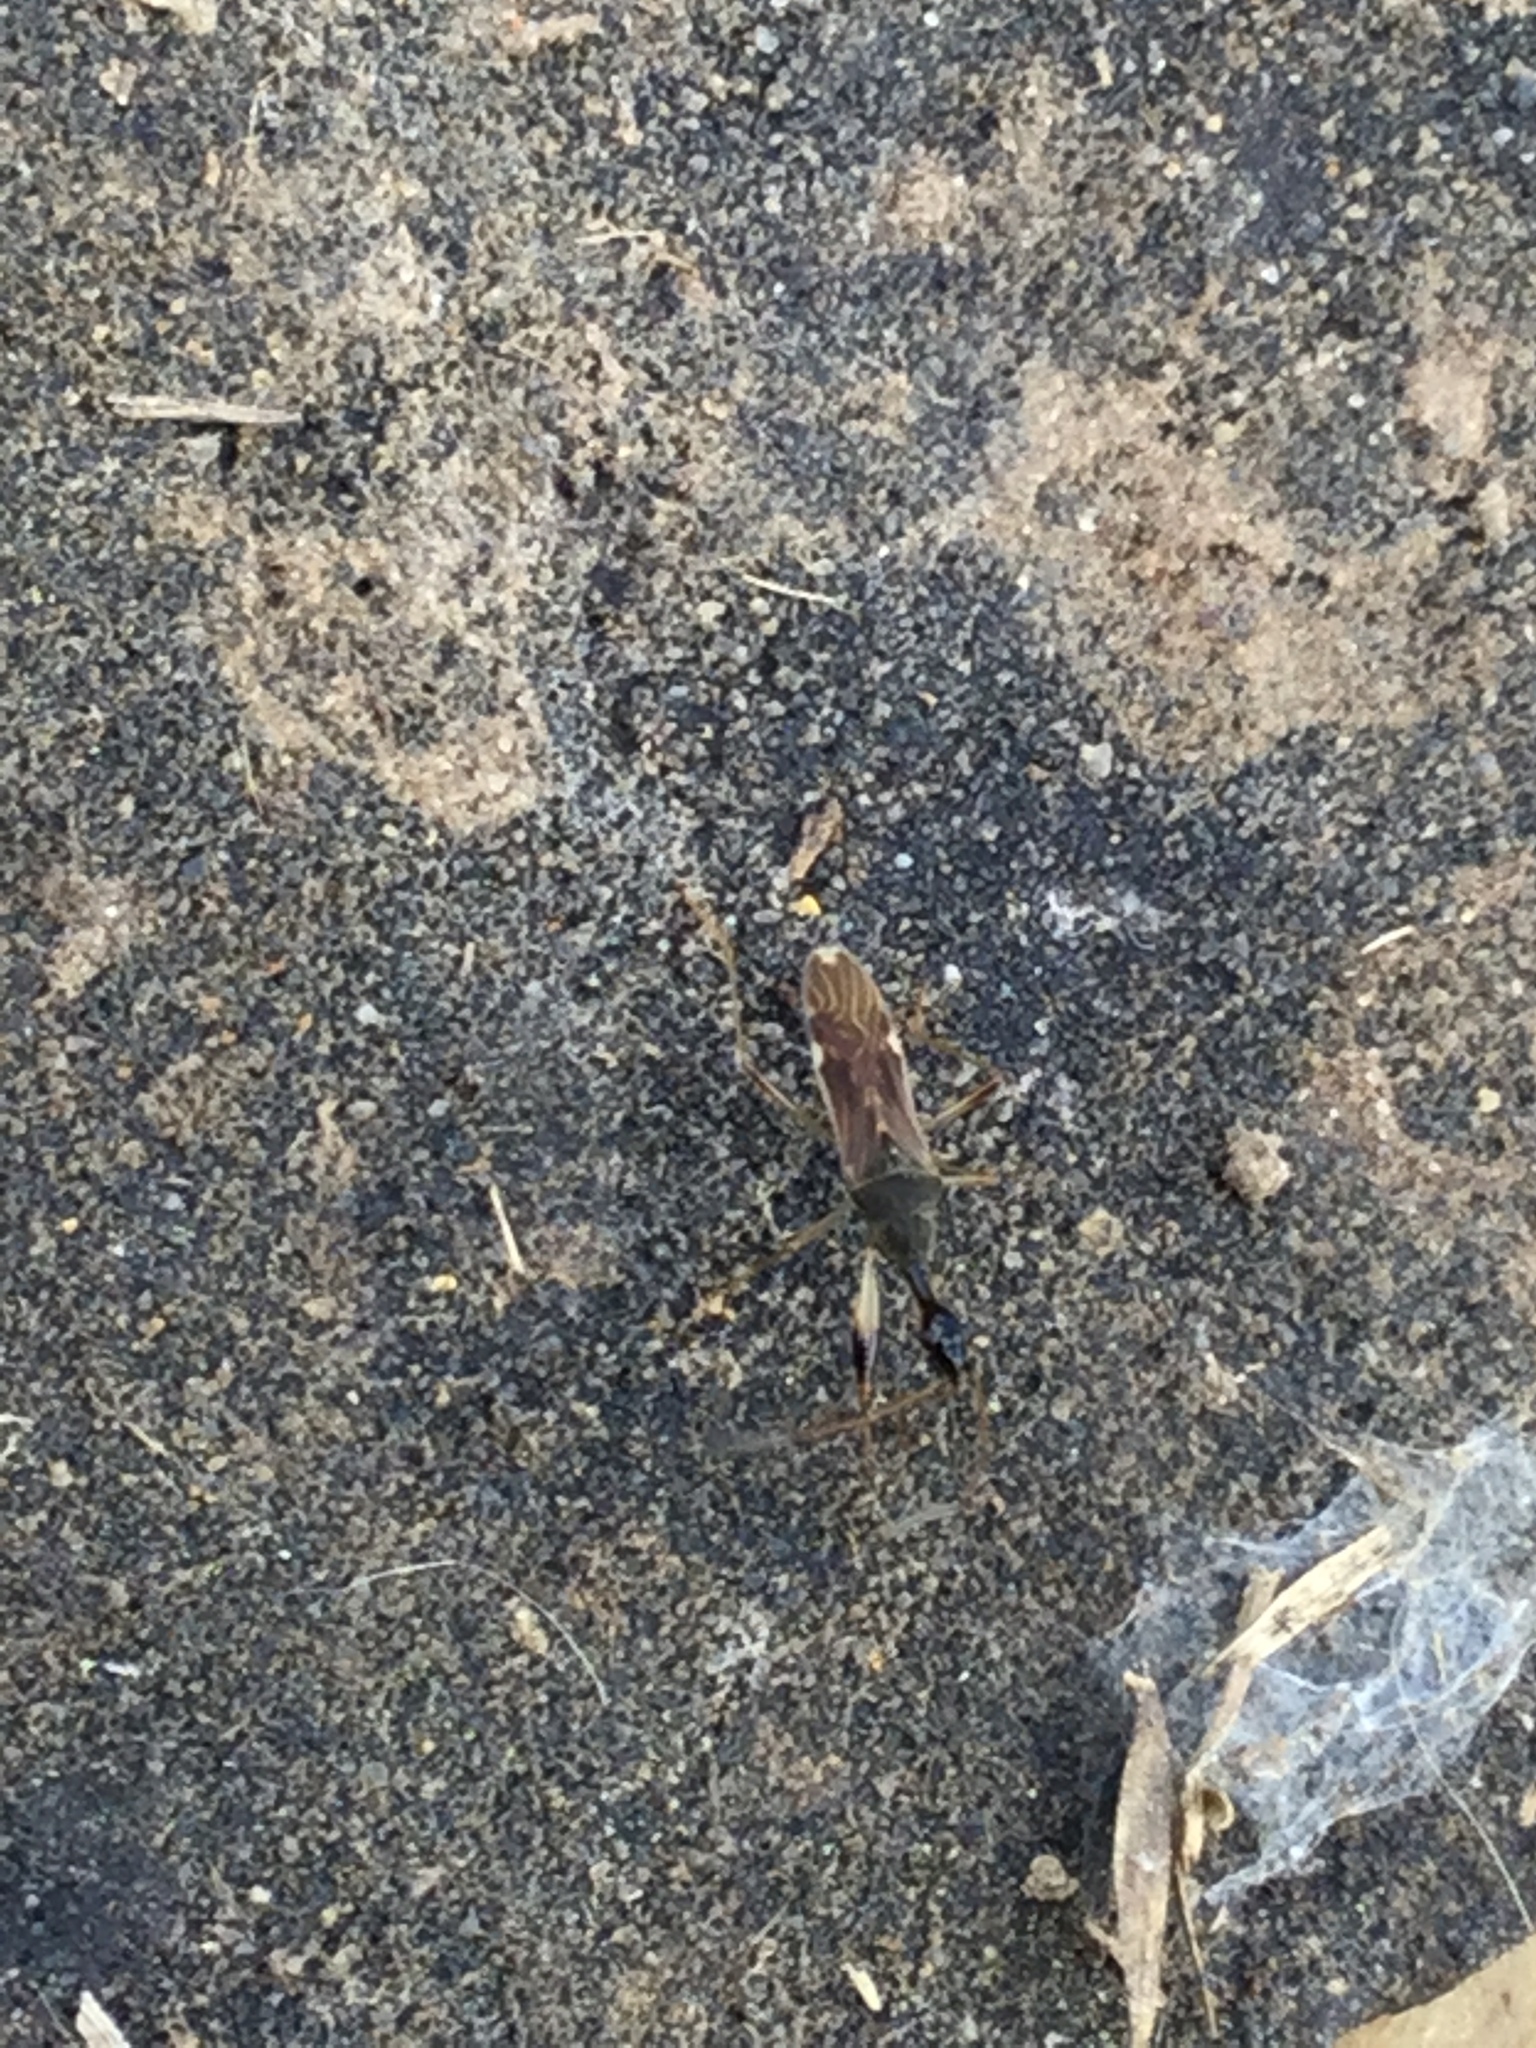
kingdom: Animalia
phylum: Arthropoda
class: Insecta
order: Hemiptera
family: Rhyparochromidae
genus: Myodocha
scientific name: Myodocha serripes
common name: Long-necked seed bug
